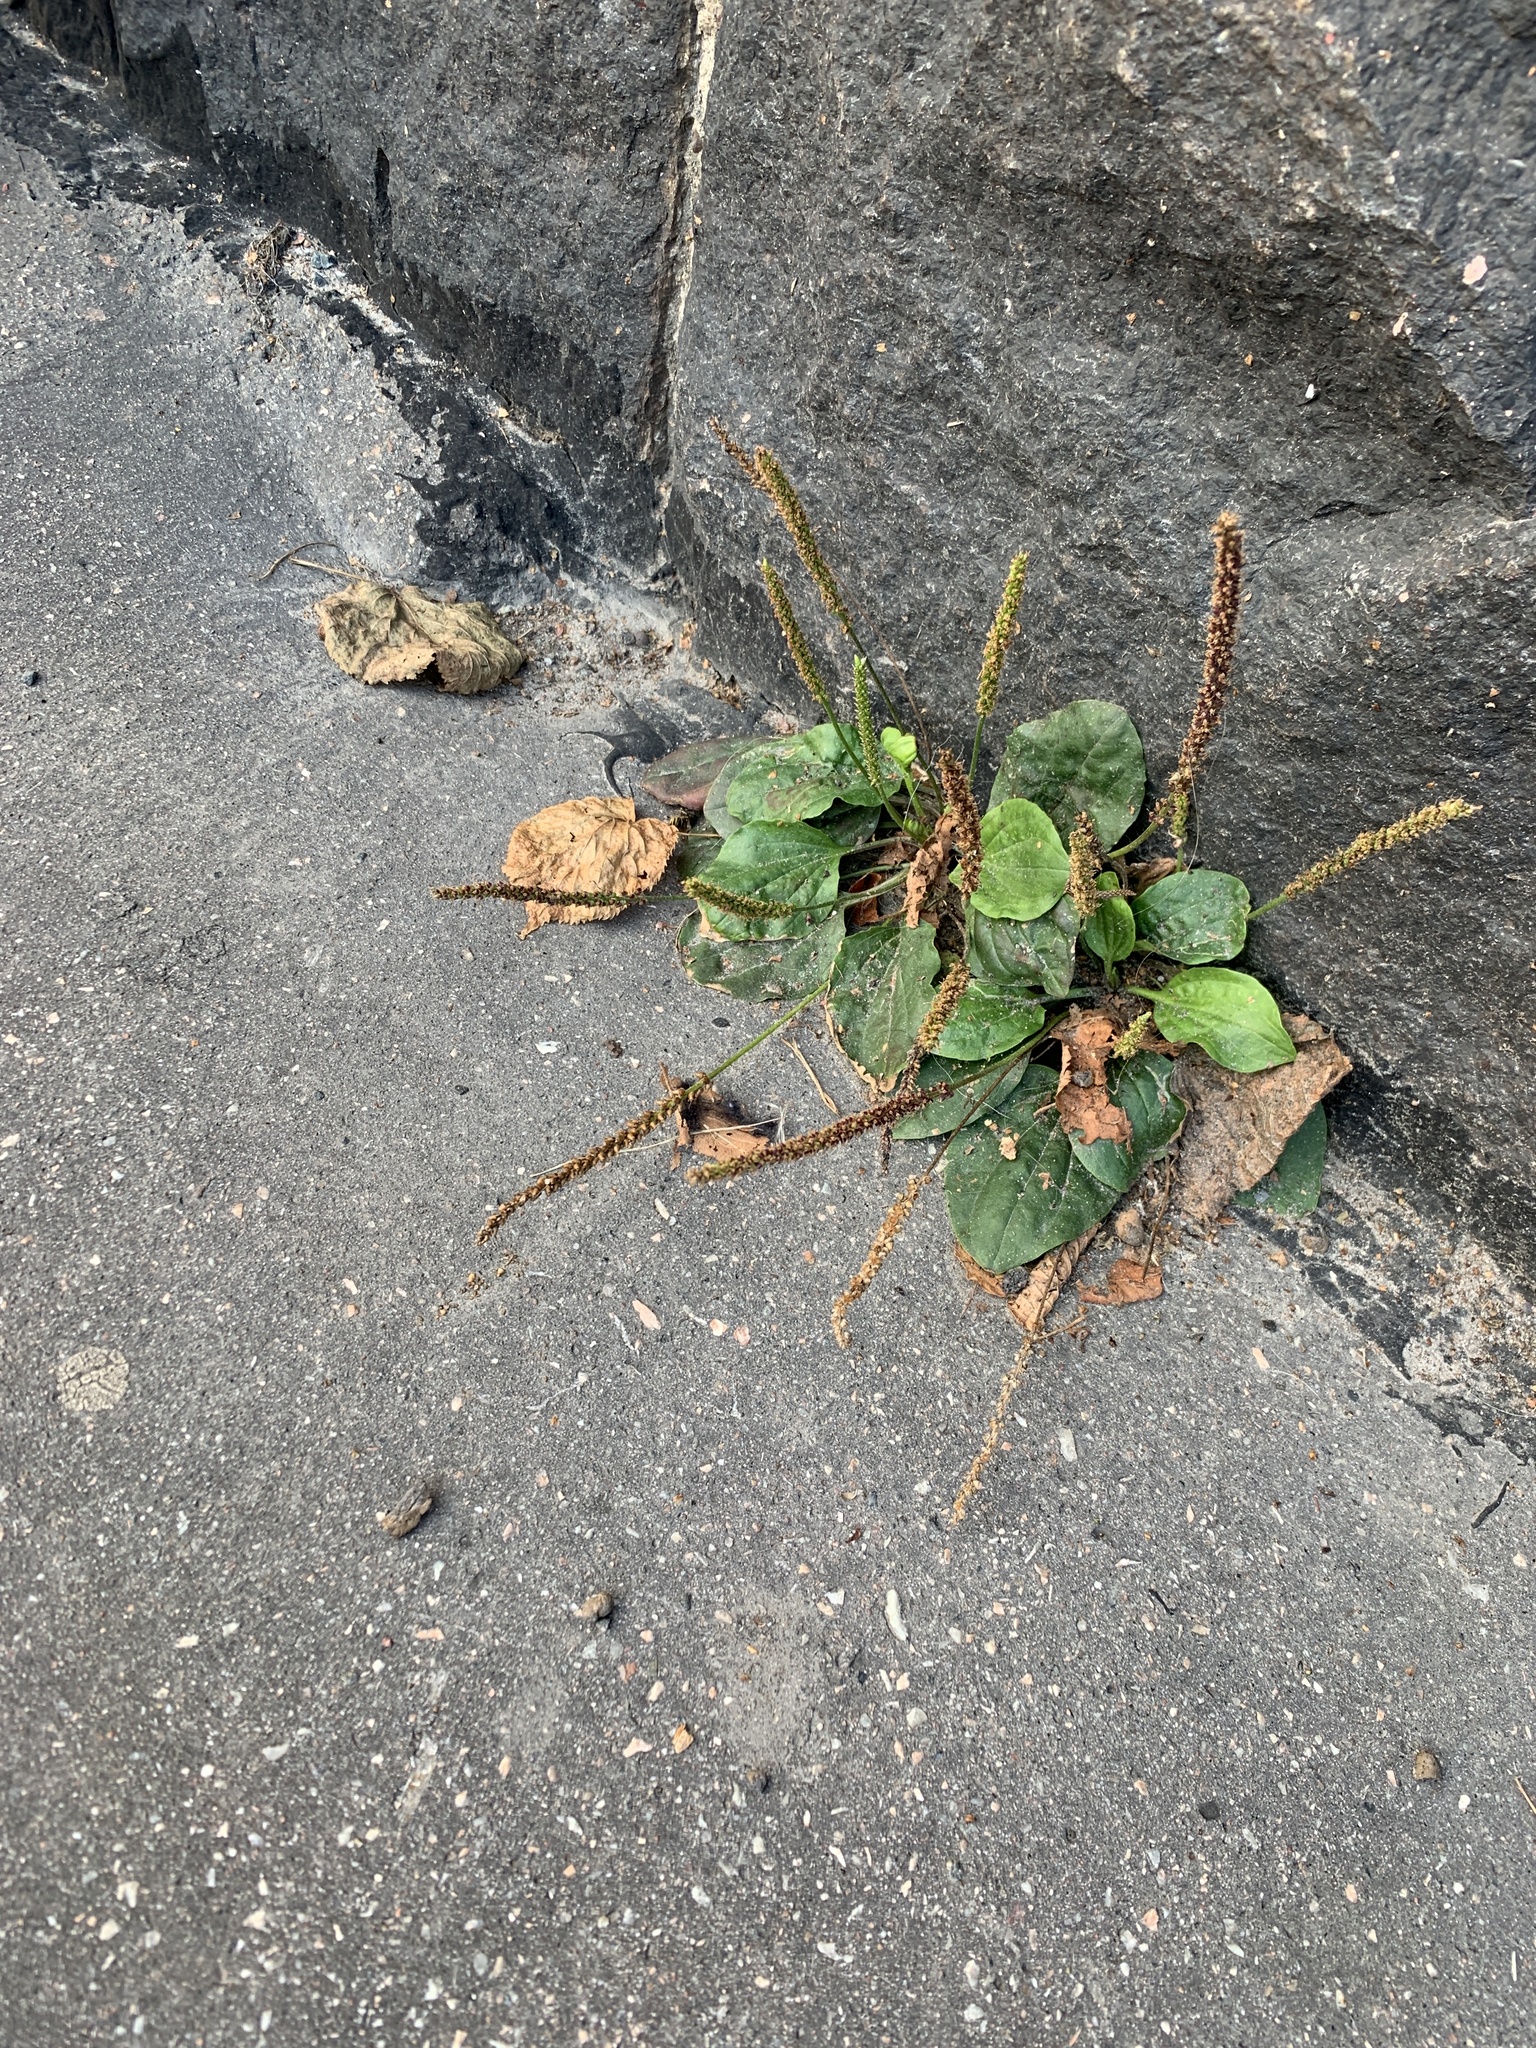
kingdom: Plantae
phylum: Tracheophyta
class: Magnoliopsida
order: Lamiales
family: Plantaginaceae
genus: Plantago
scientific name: Plantago major
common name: Common plantain
